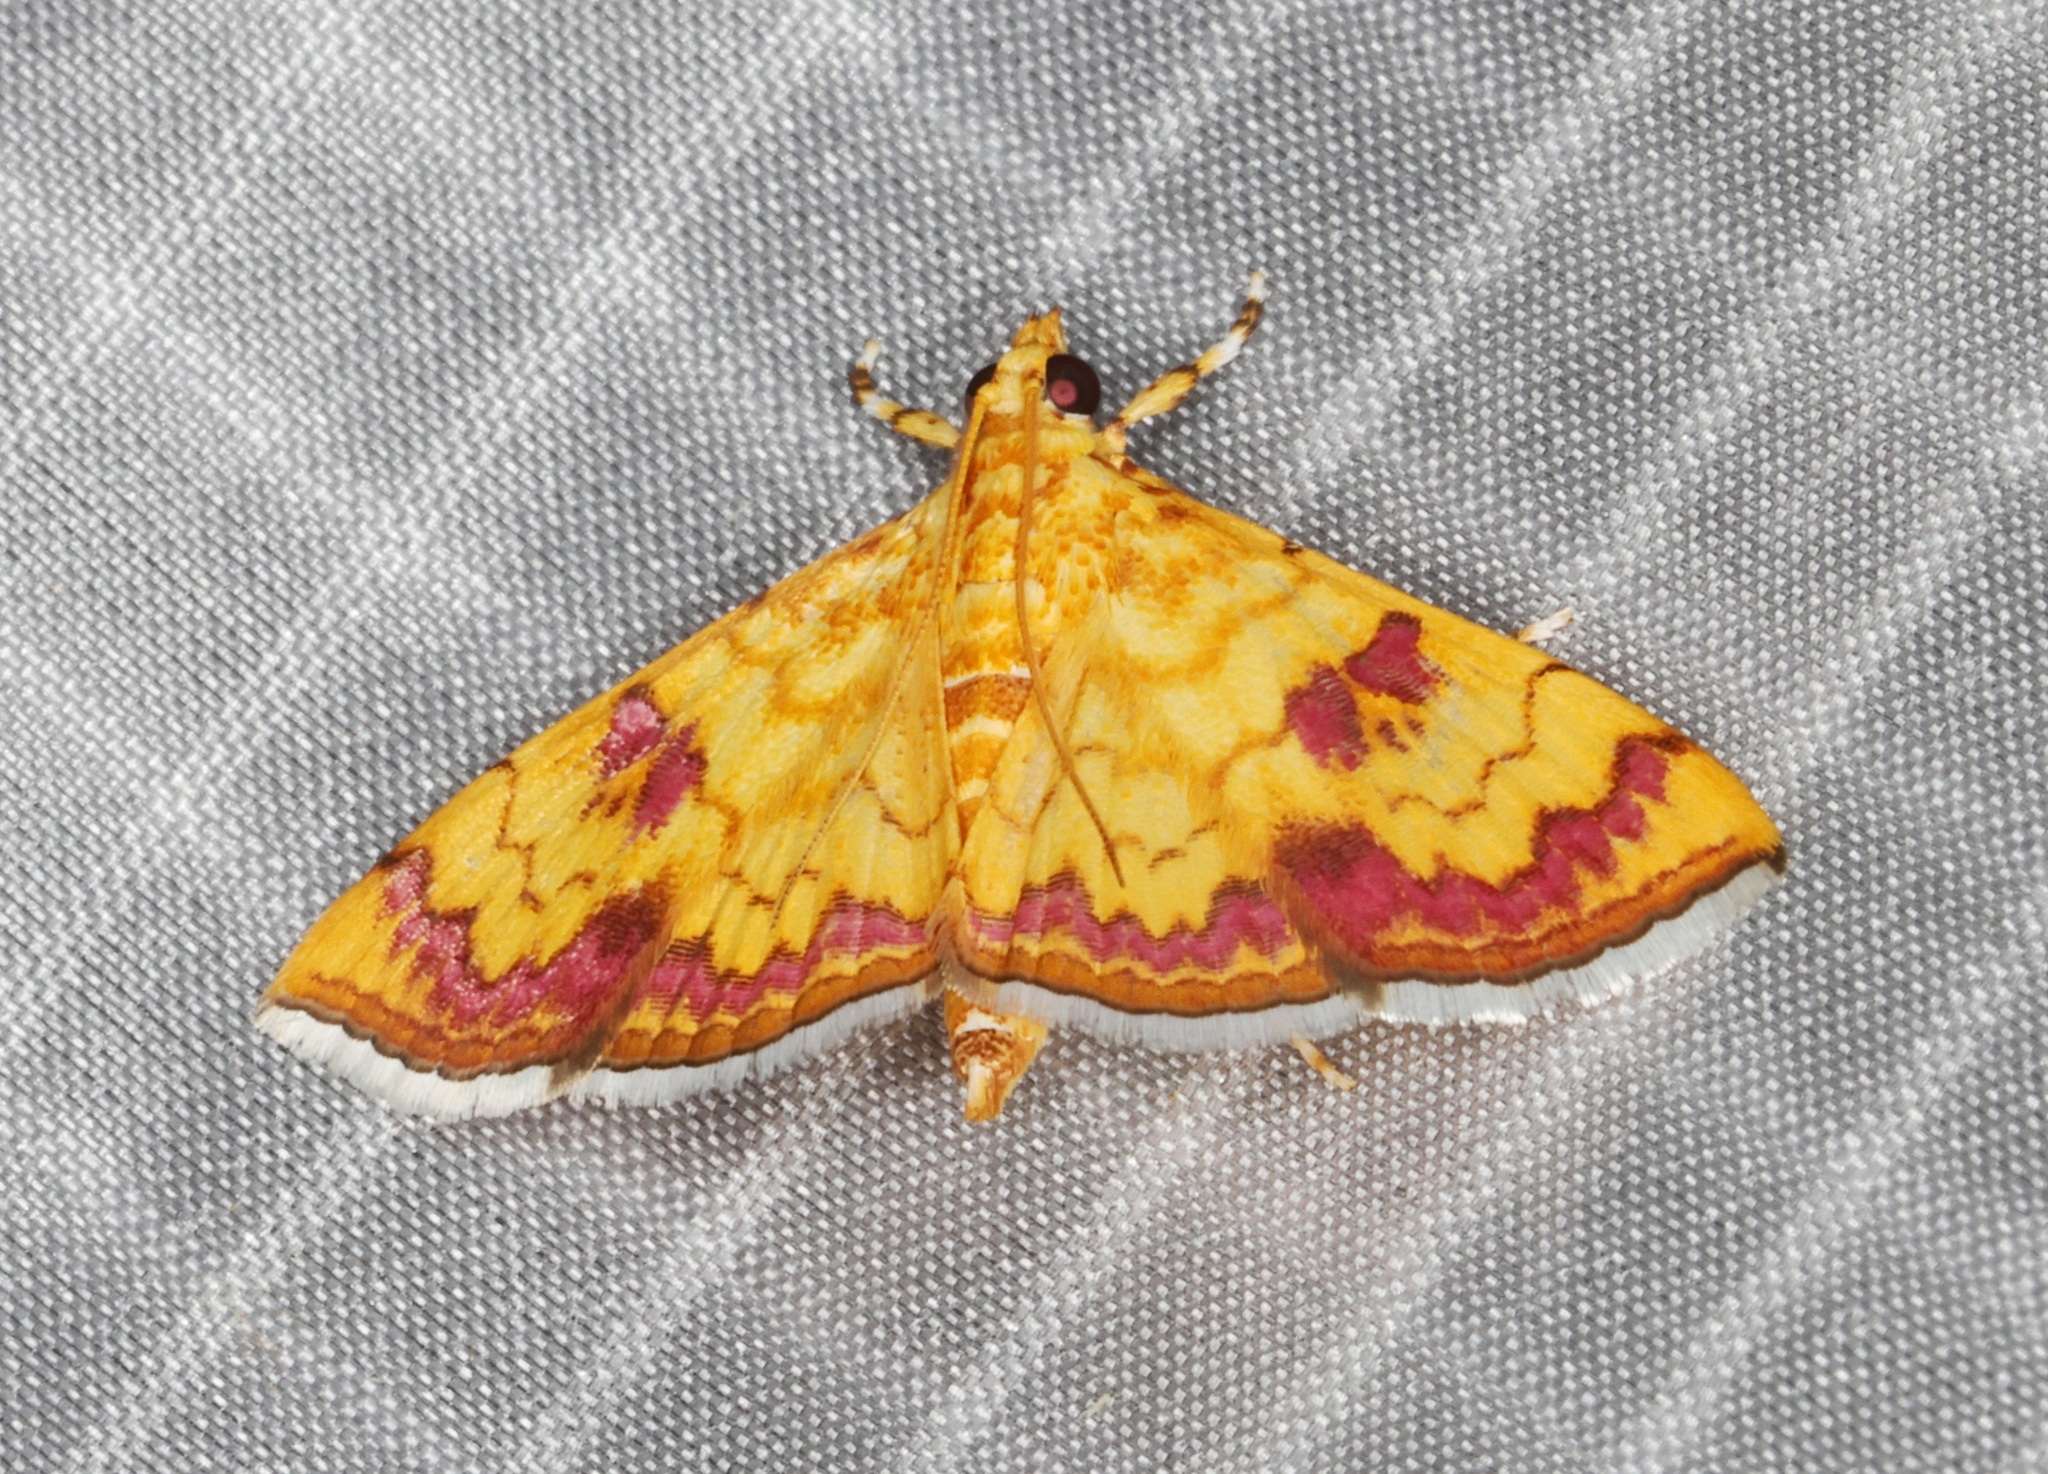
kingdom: Animalia
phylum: Arthropoda
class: Insecta
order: Lepidoptera
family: Crambidae
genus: Isocentris
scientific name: Isocentris filalis
